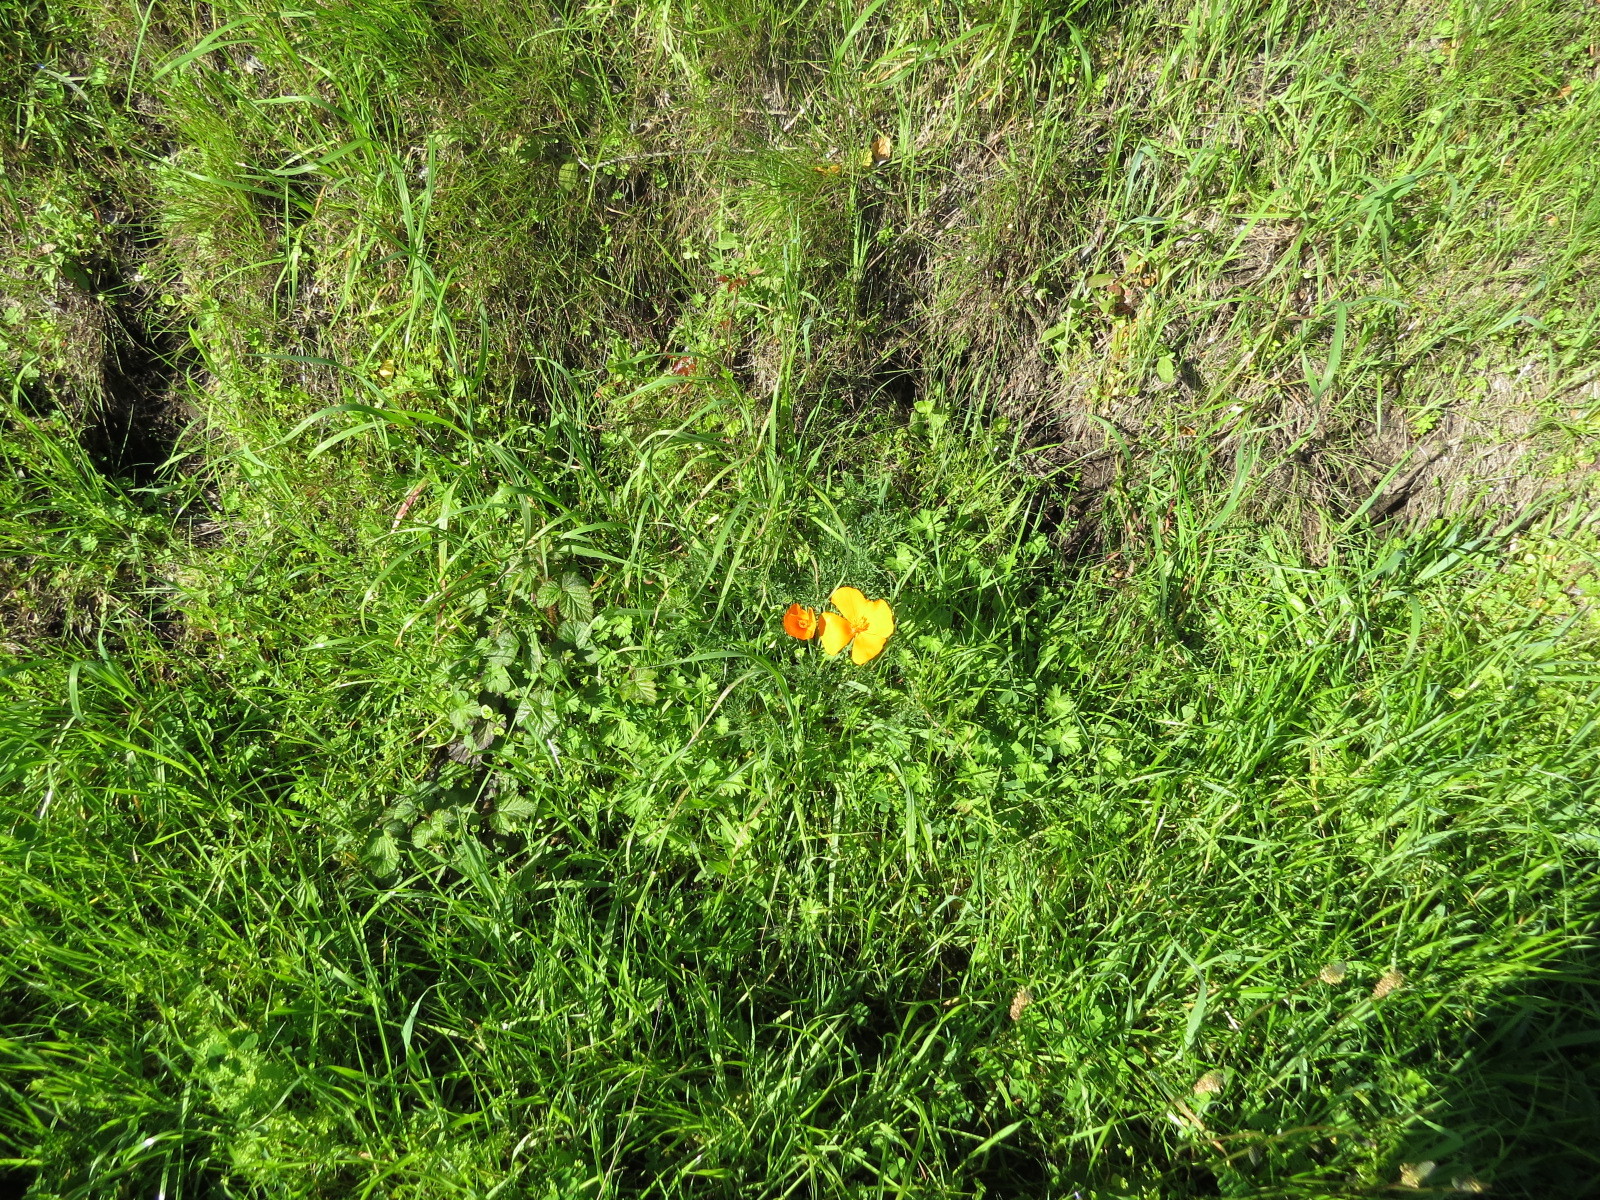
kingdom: Plantae
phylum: Tracheophyta
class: Magnoliopsida
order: Ranunculales
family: Papaveraceae
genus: Eschscholzia
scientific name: Eschscholzia californica
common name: California poppy
